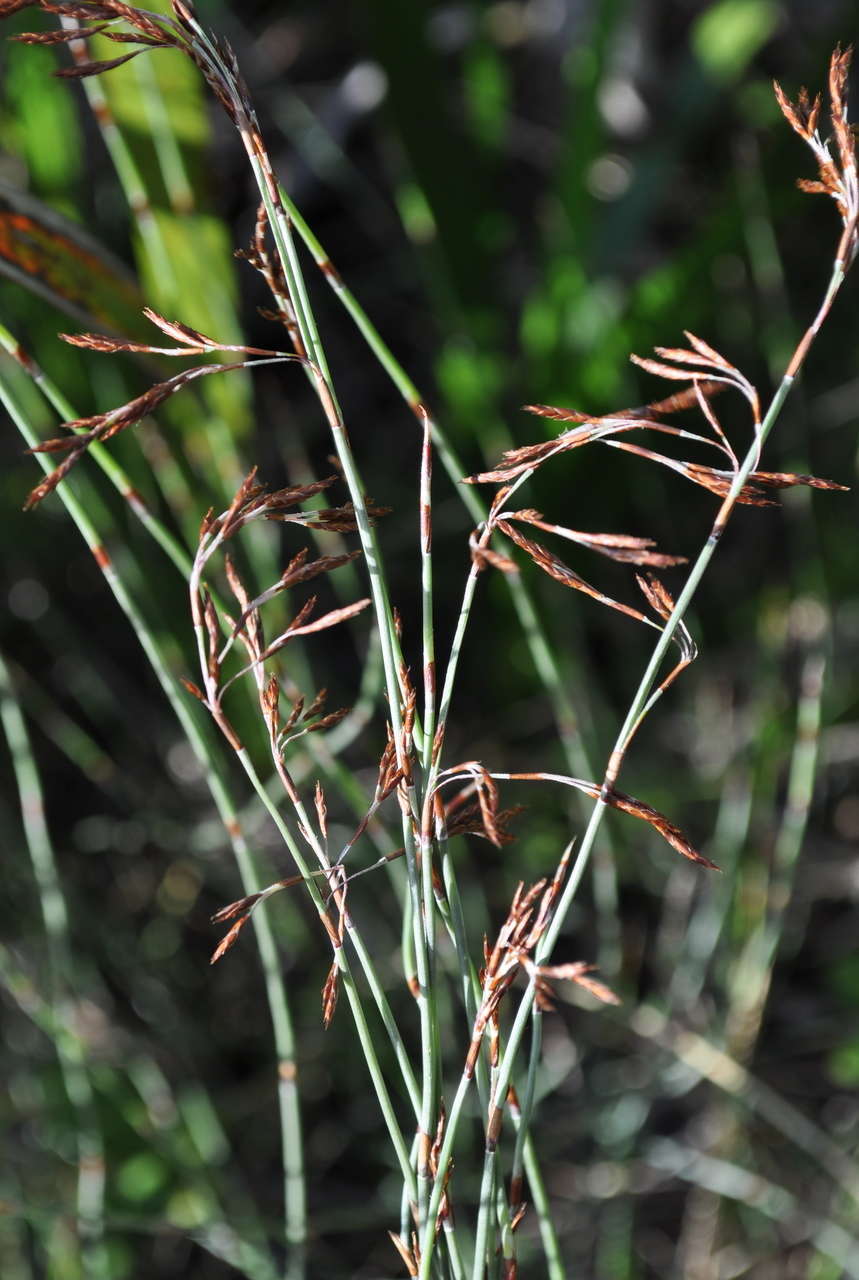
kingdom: Plantae
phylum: Tracheophyta
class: Liliopsida
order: Poales
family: Restionaceae
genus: Hypolaena
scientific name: Hypolaena fastigiata
